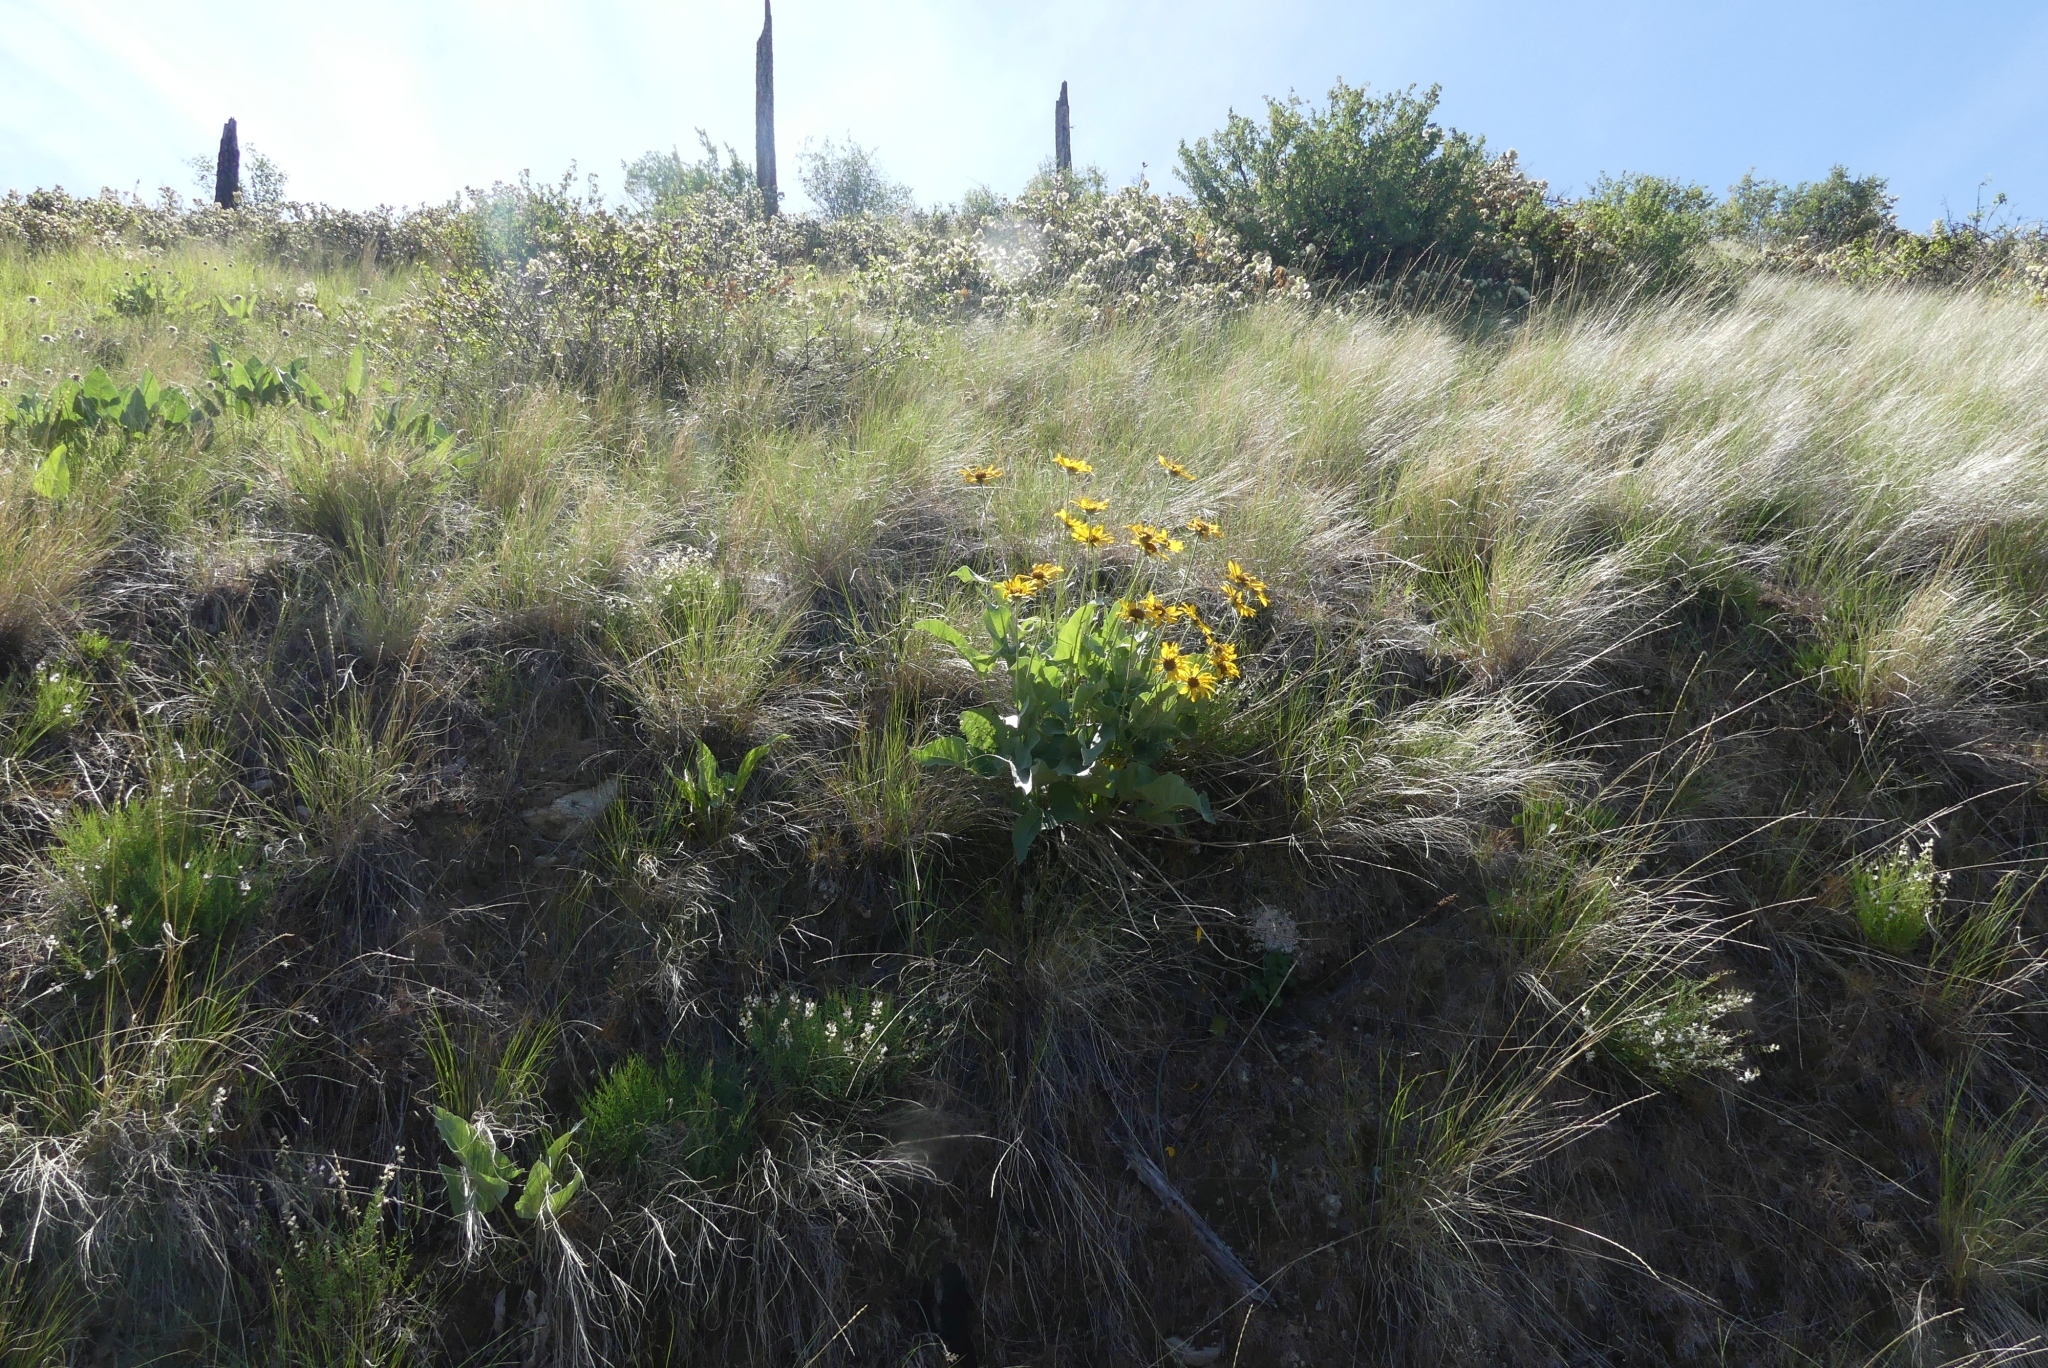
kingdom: Plantae
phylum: Tracheophyta
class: Magnoliopsida
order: Asterales
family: Asteraceae
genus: Wyethia
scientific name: Wyethia sagittata
